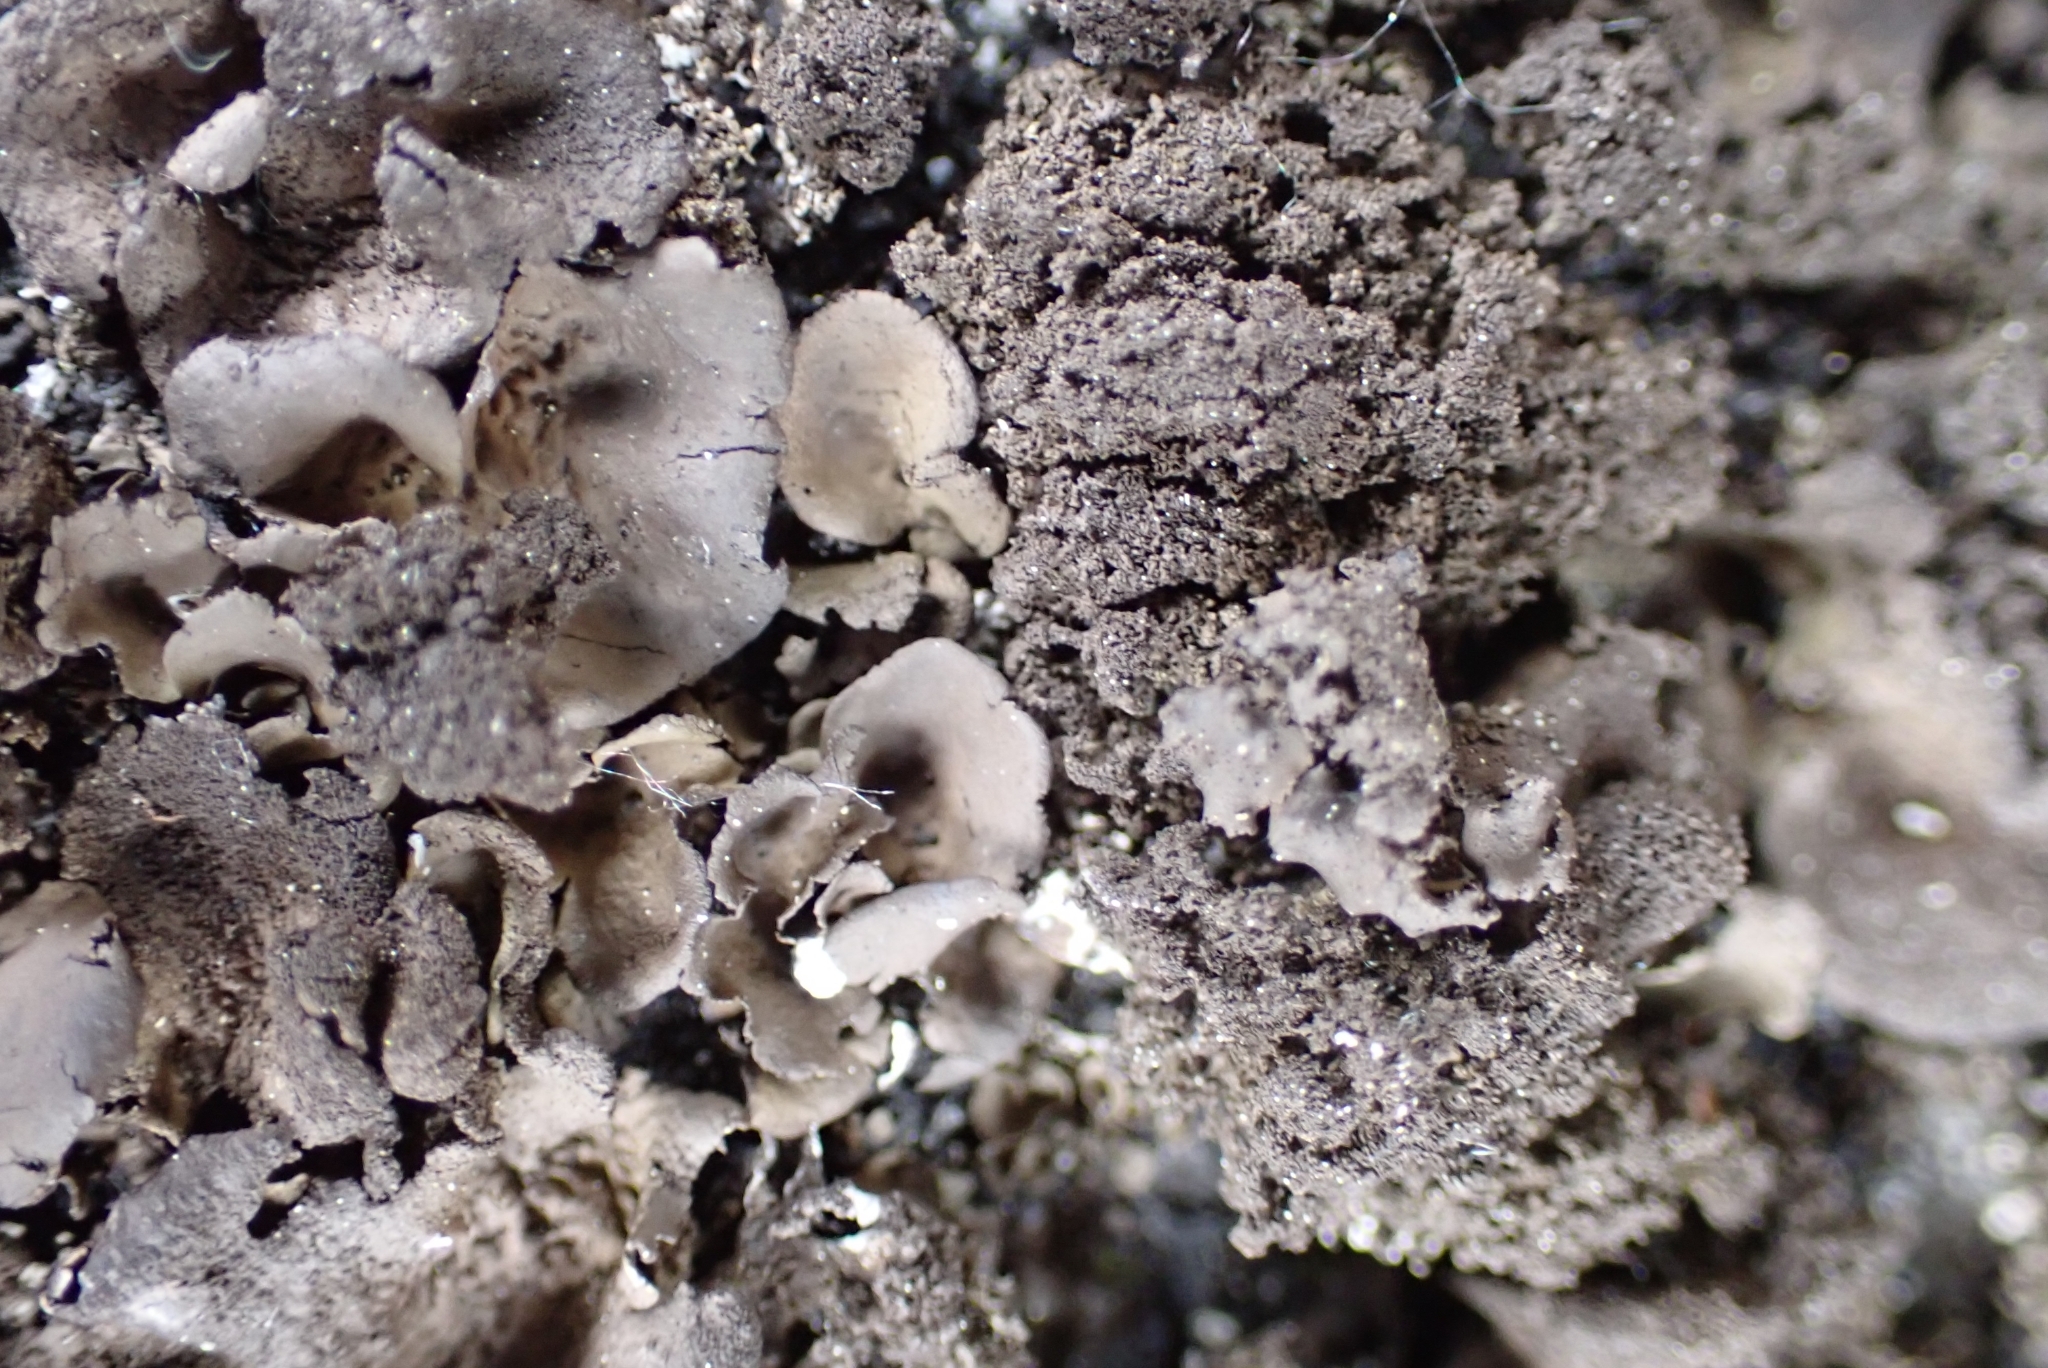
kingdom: Fungi
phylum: Ascomycota
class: Lecanoromycetes
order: Umbilicariales
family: Umbilicariaceae
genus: Umbilicaria
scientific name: Umbilicaria deusta
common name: Peppered rock tripe
